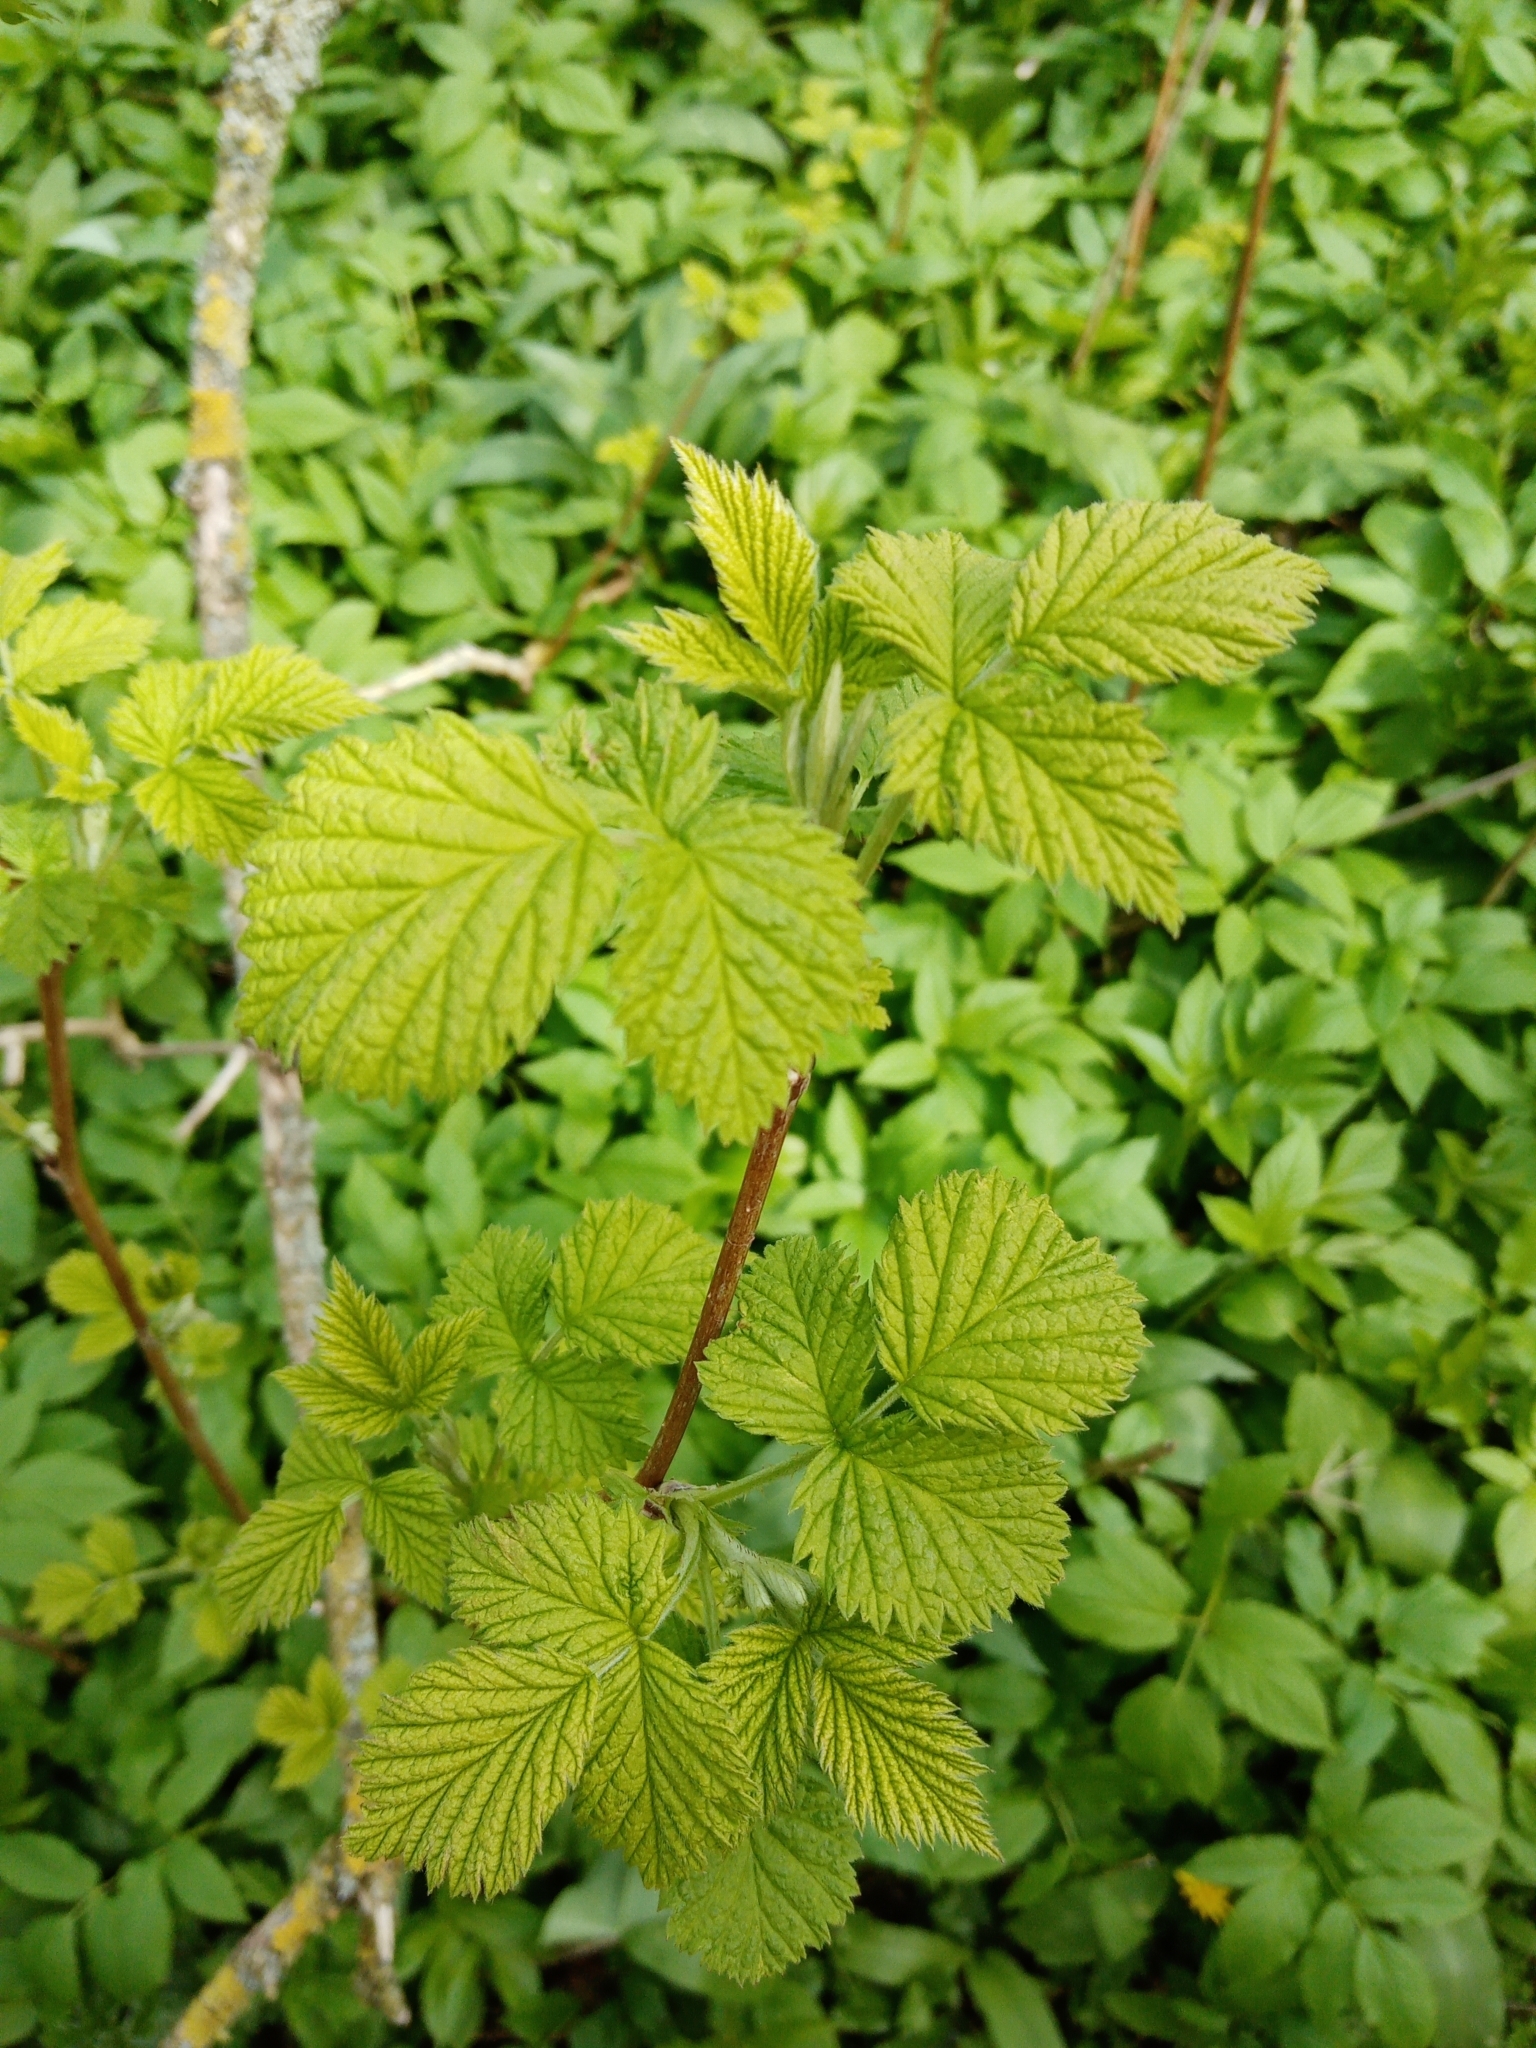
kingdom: Plantae
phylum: Tracheophyta
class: Magnoliopsida
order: Rosales
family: Rosaceae
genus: Rubus
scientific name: Rubus idaeus
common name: Raspberry
